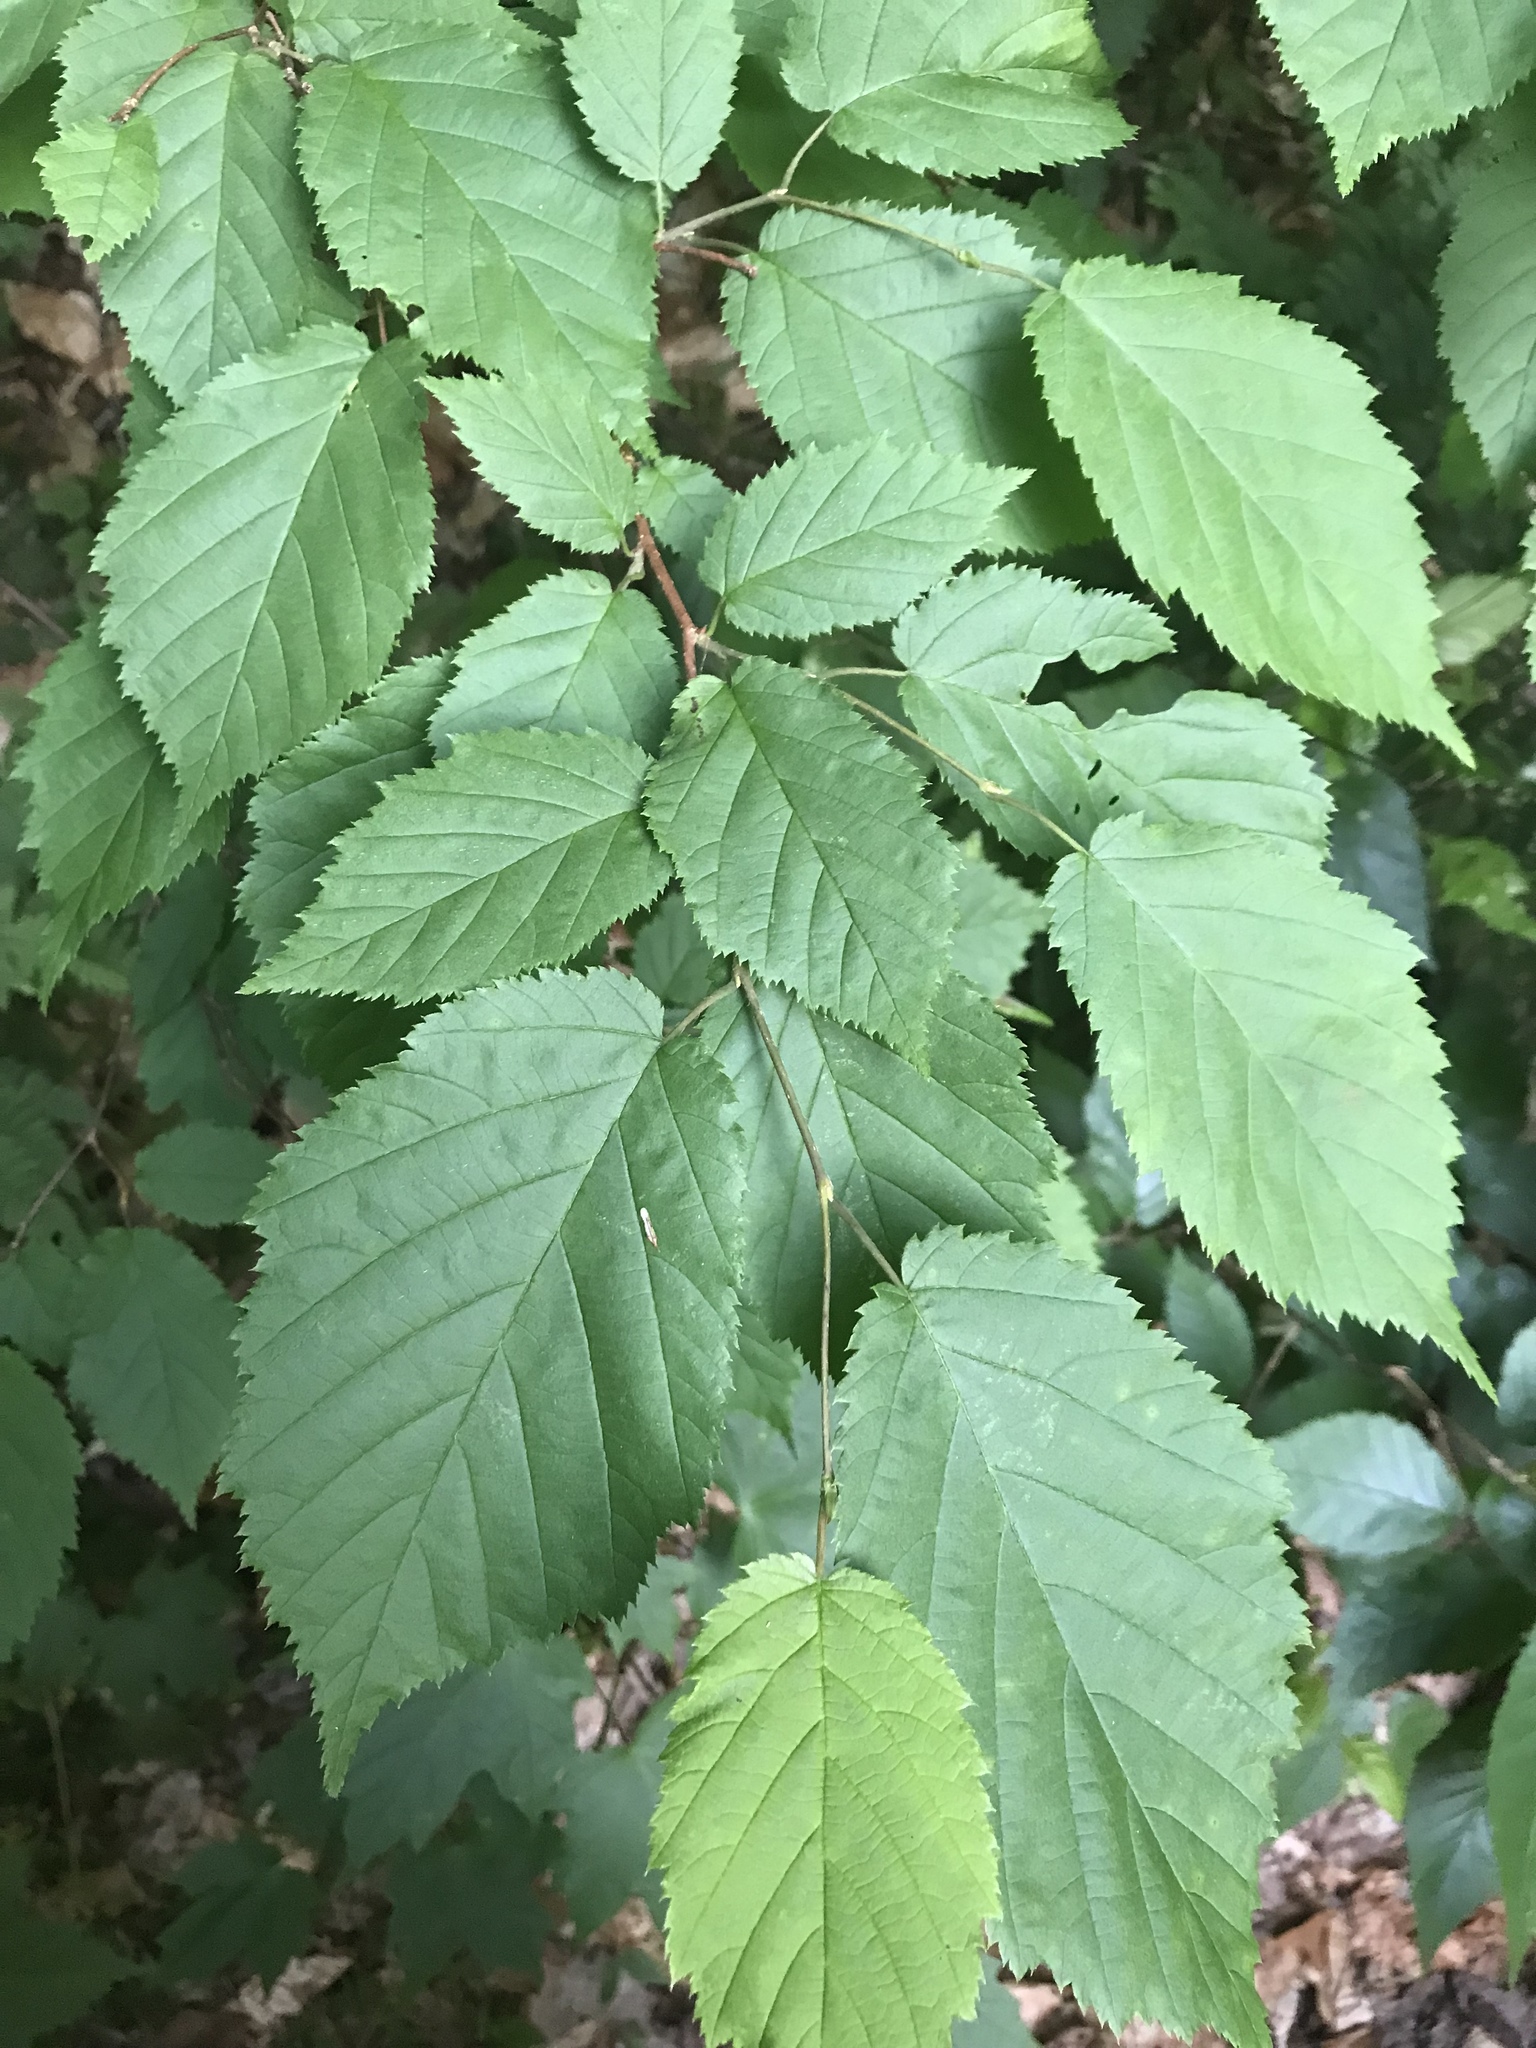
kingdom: Plantae
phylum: Tracheophyta
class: Magnoliopsida
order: Fagales
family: Betulaceae
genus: Corylus
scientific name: Corylus cornuta
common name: Beaked hazel
